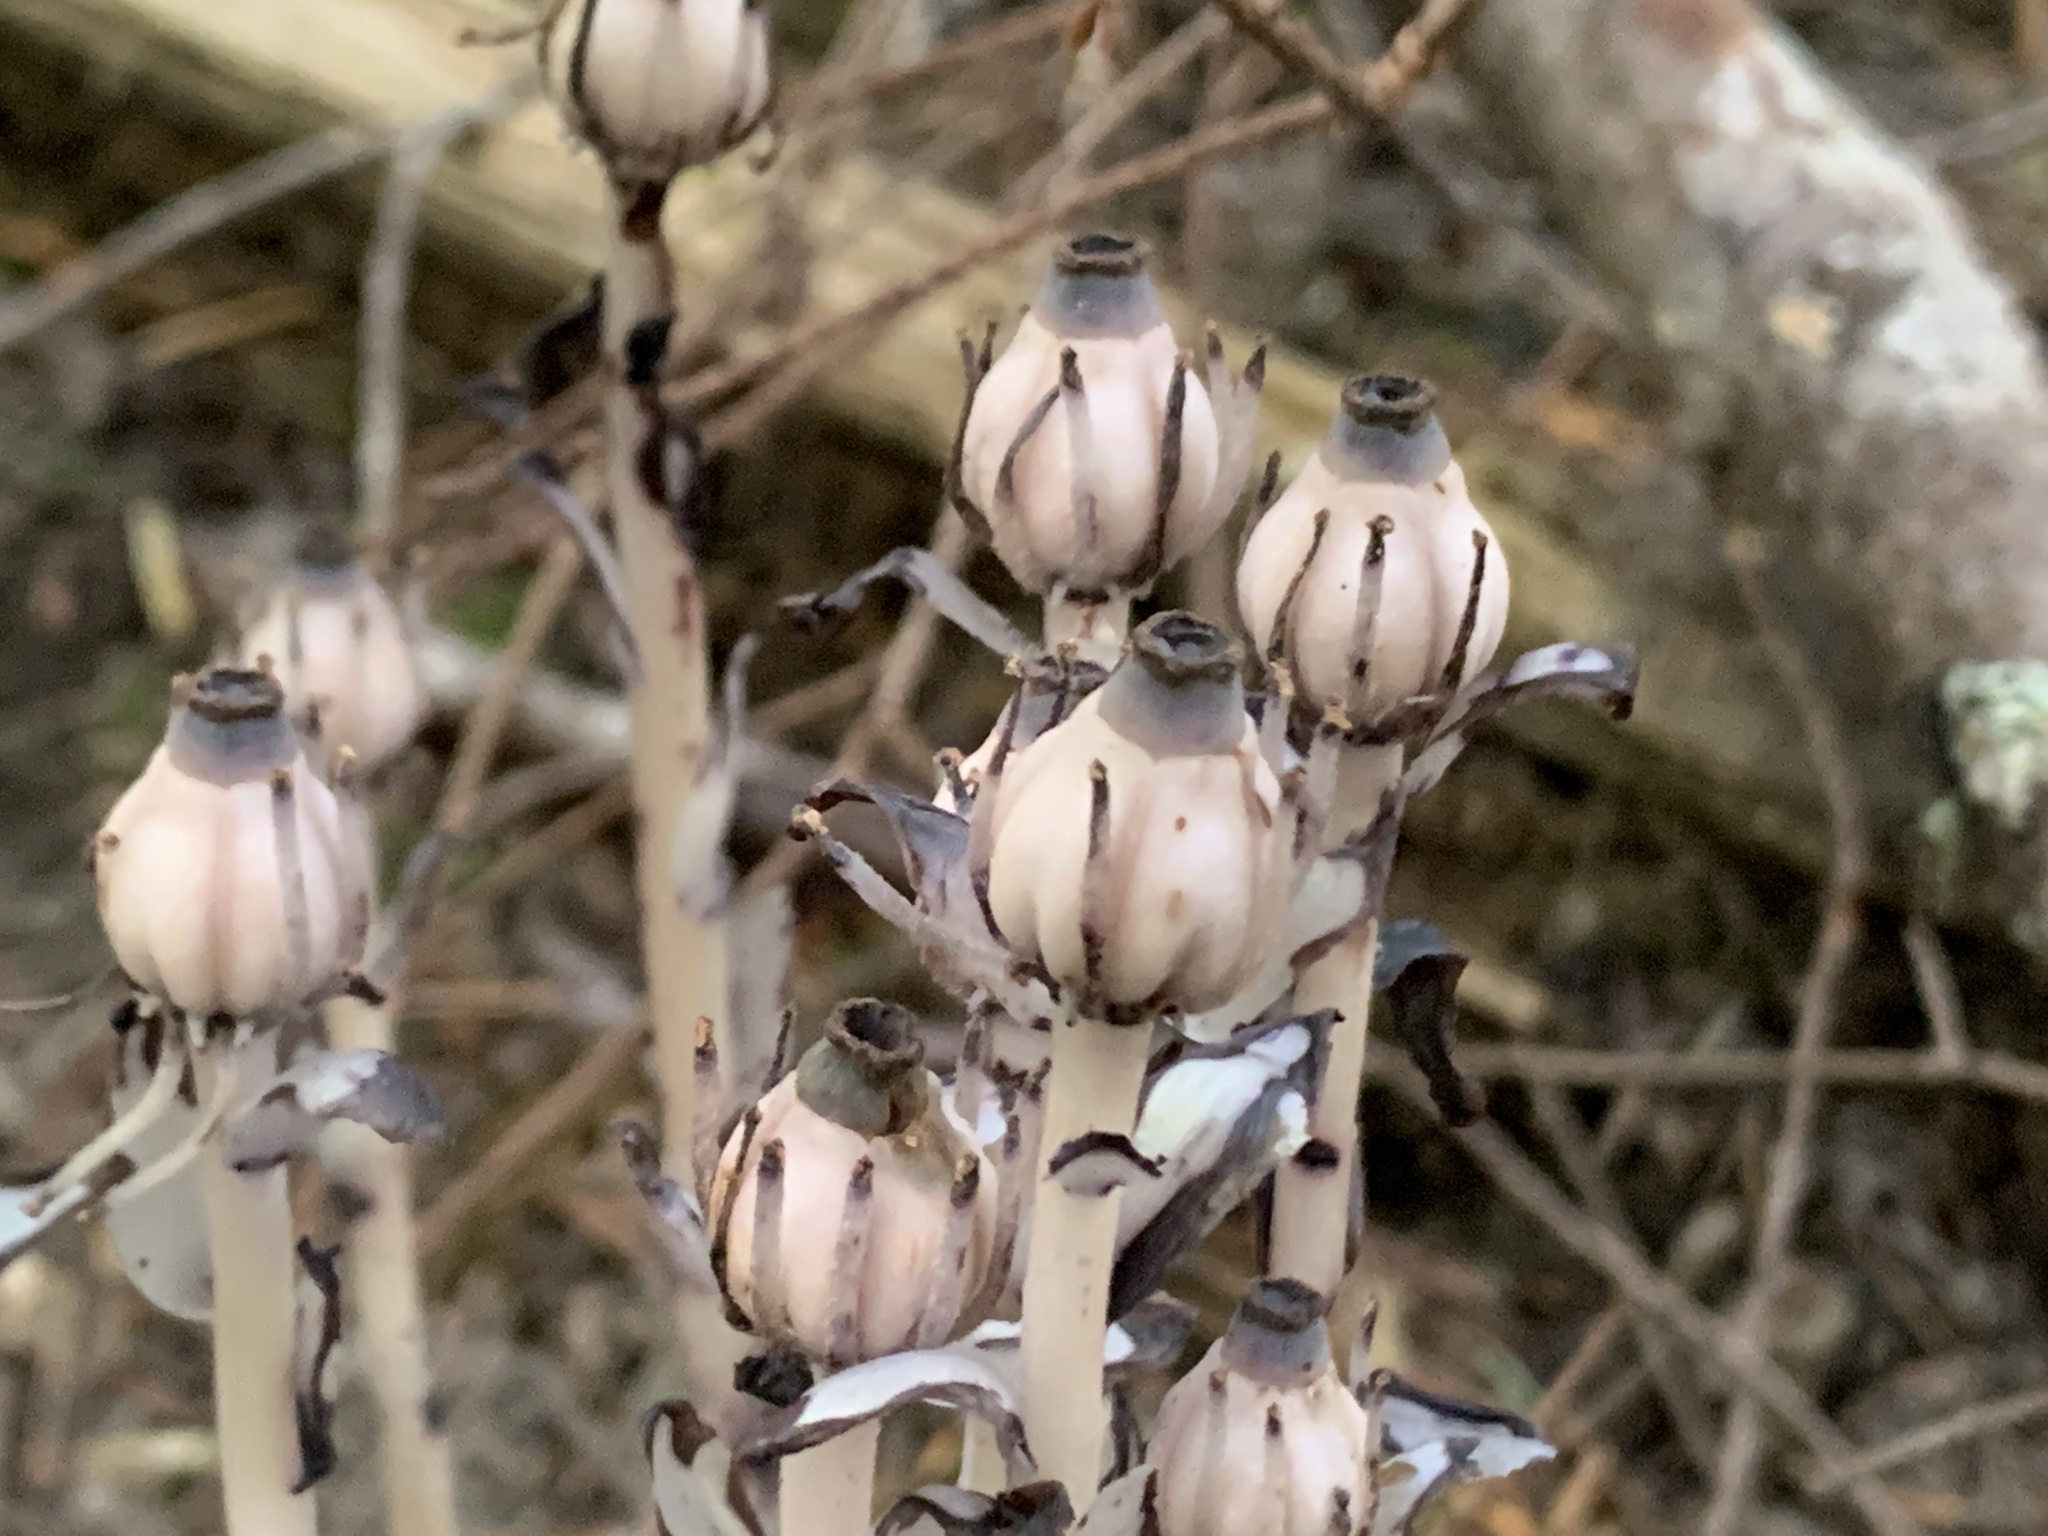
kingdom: Plantae
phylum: Tracheophyta
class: Magnoliopsida
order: Ericales
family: Ericaceae
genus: Monotropa
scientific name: Monotropa uniflora
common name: Convulsion root
